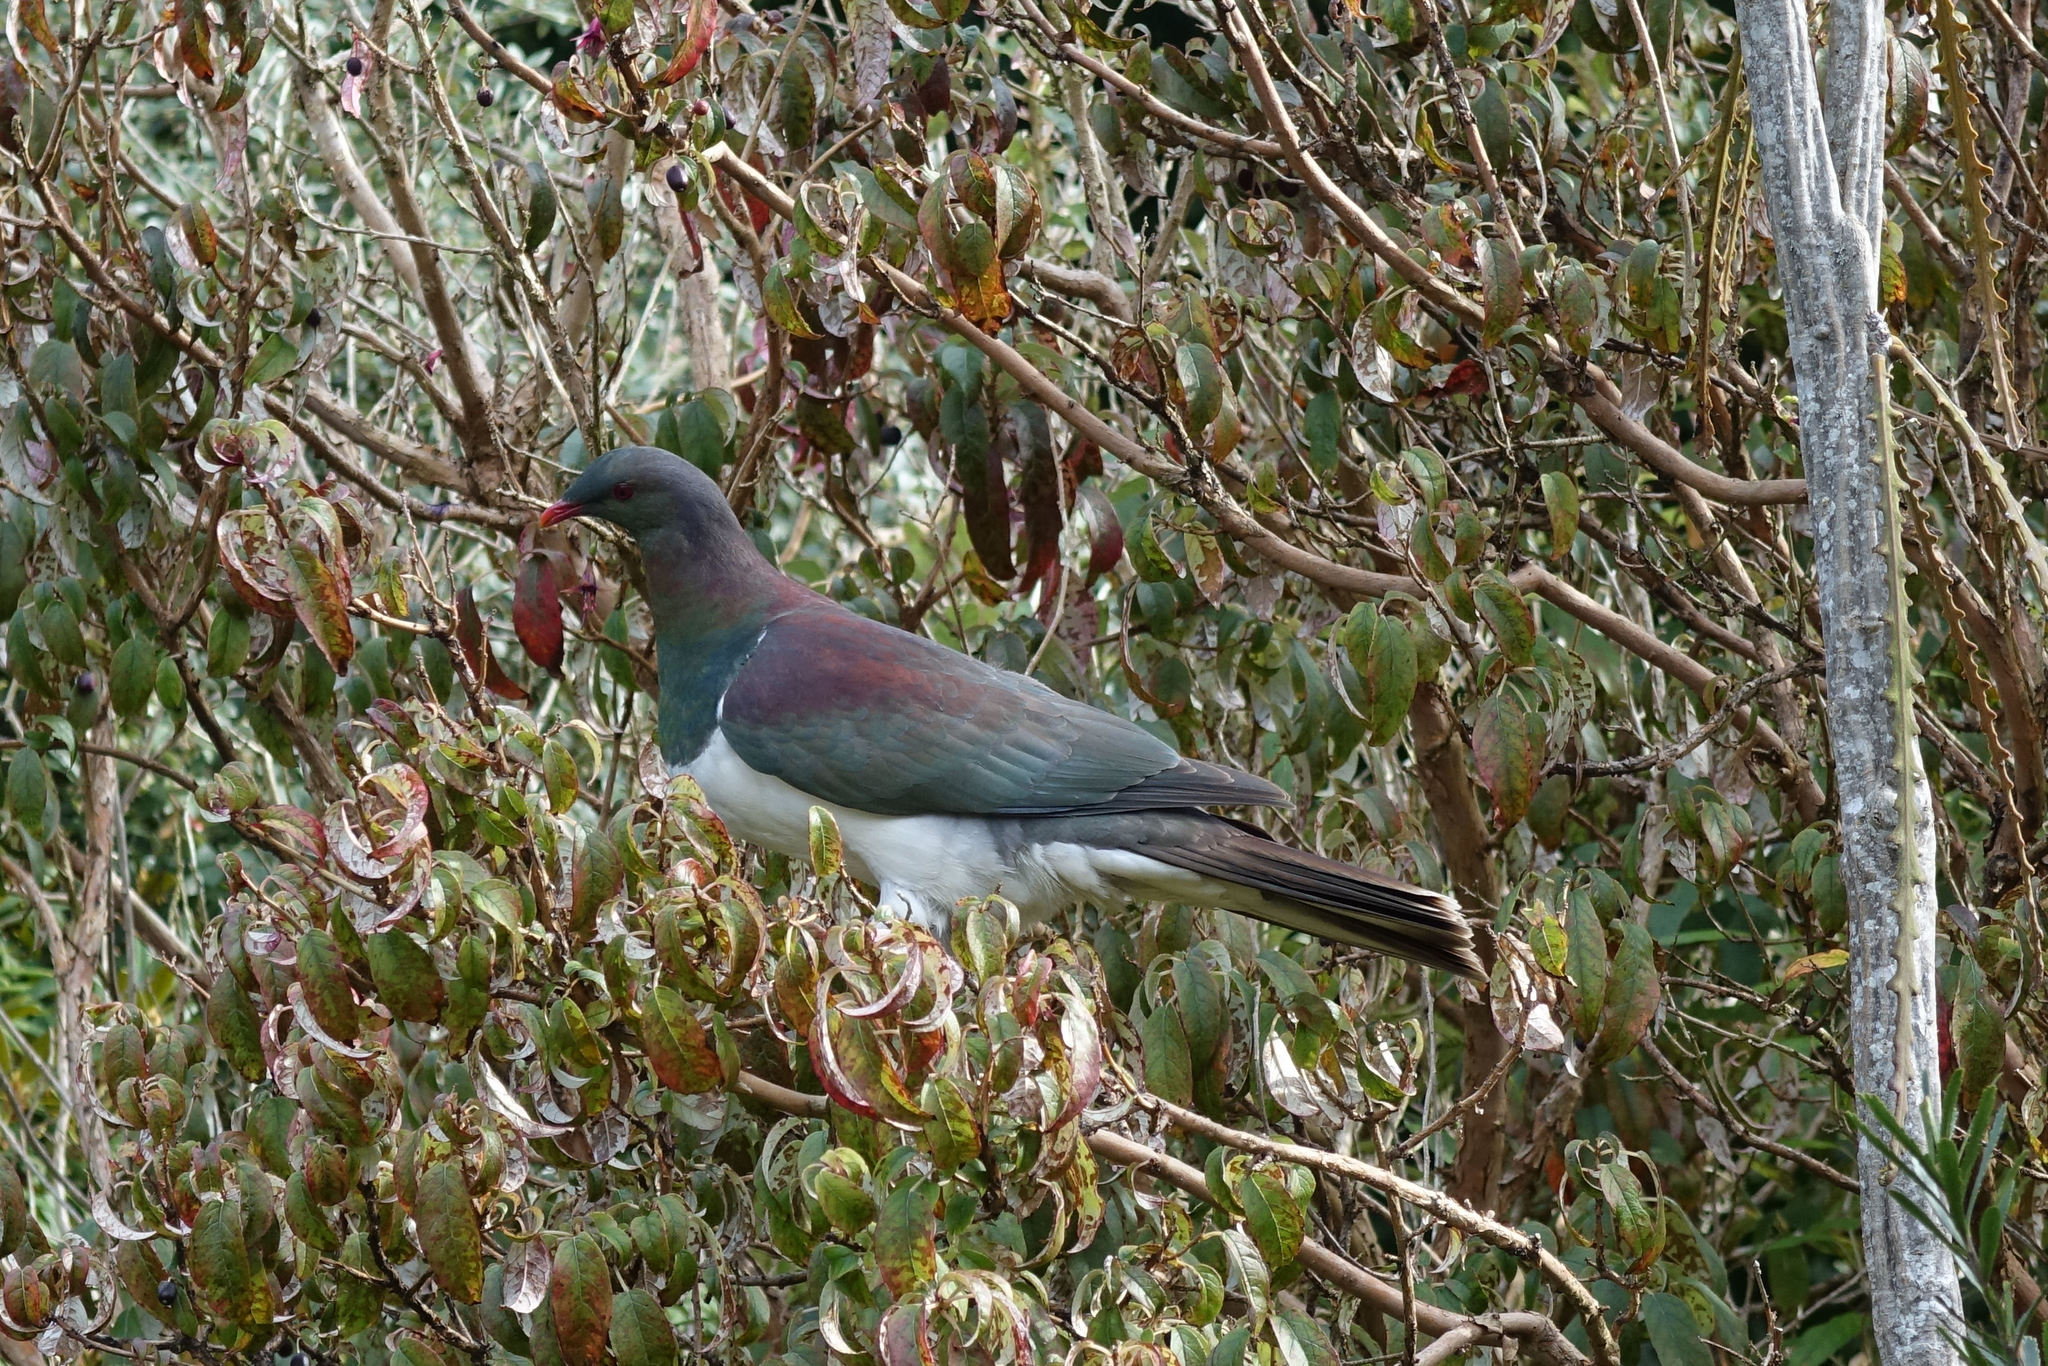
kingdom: Animalia
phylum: Chordata
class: Aves
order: Columbiformes
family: Columbidae
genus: Hemiphaga
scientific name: Hemiphaga novaeseelandiae
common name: New zealand pigeon
